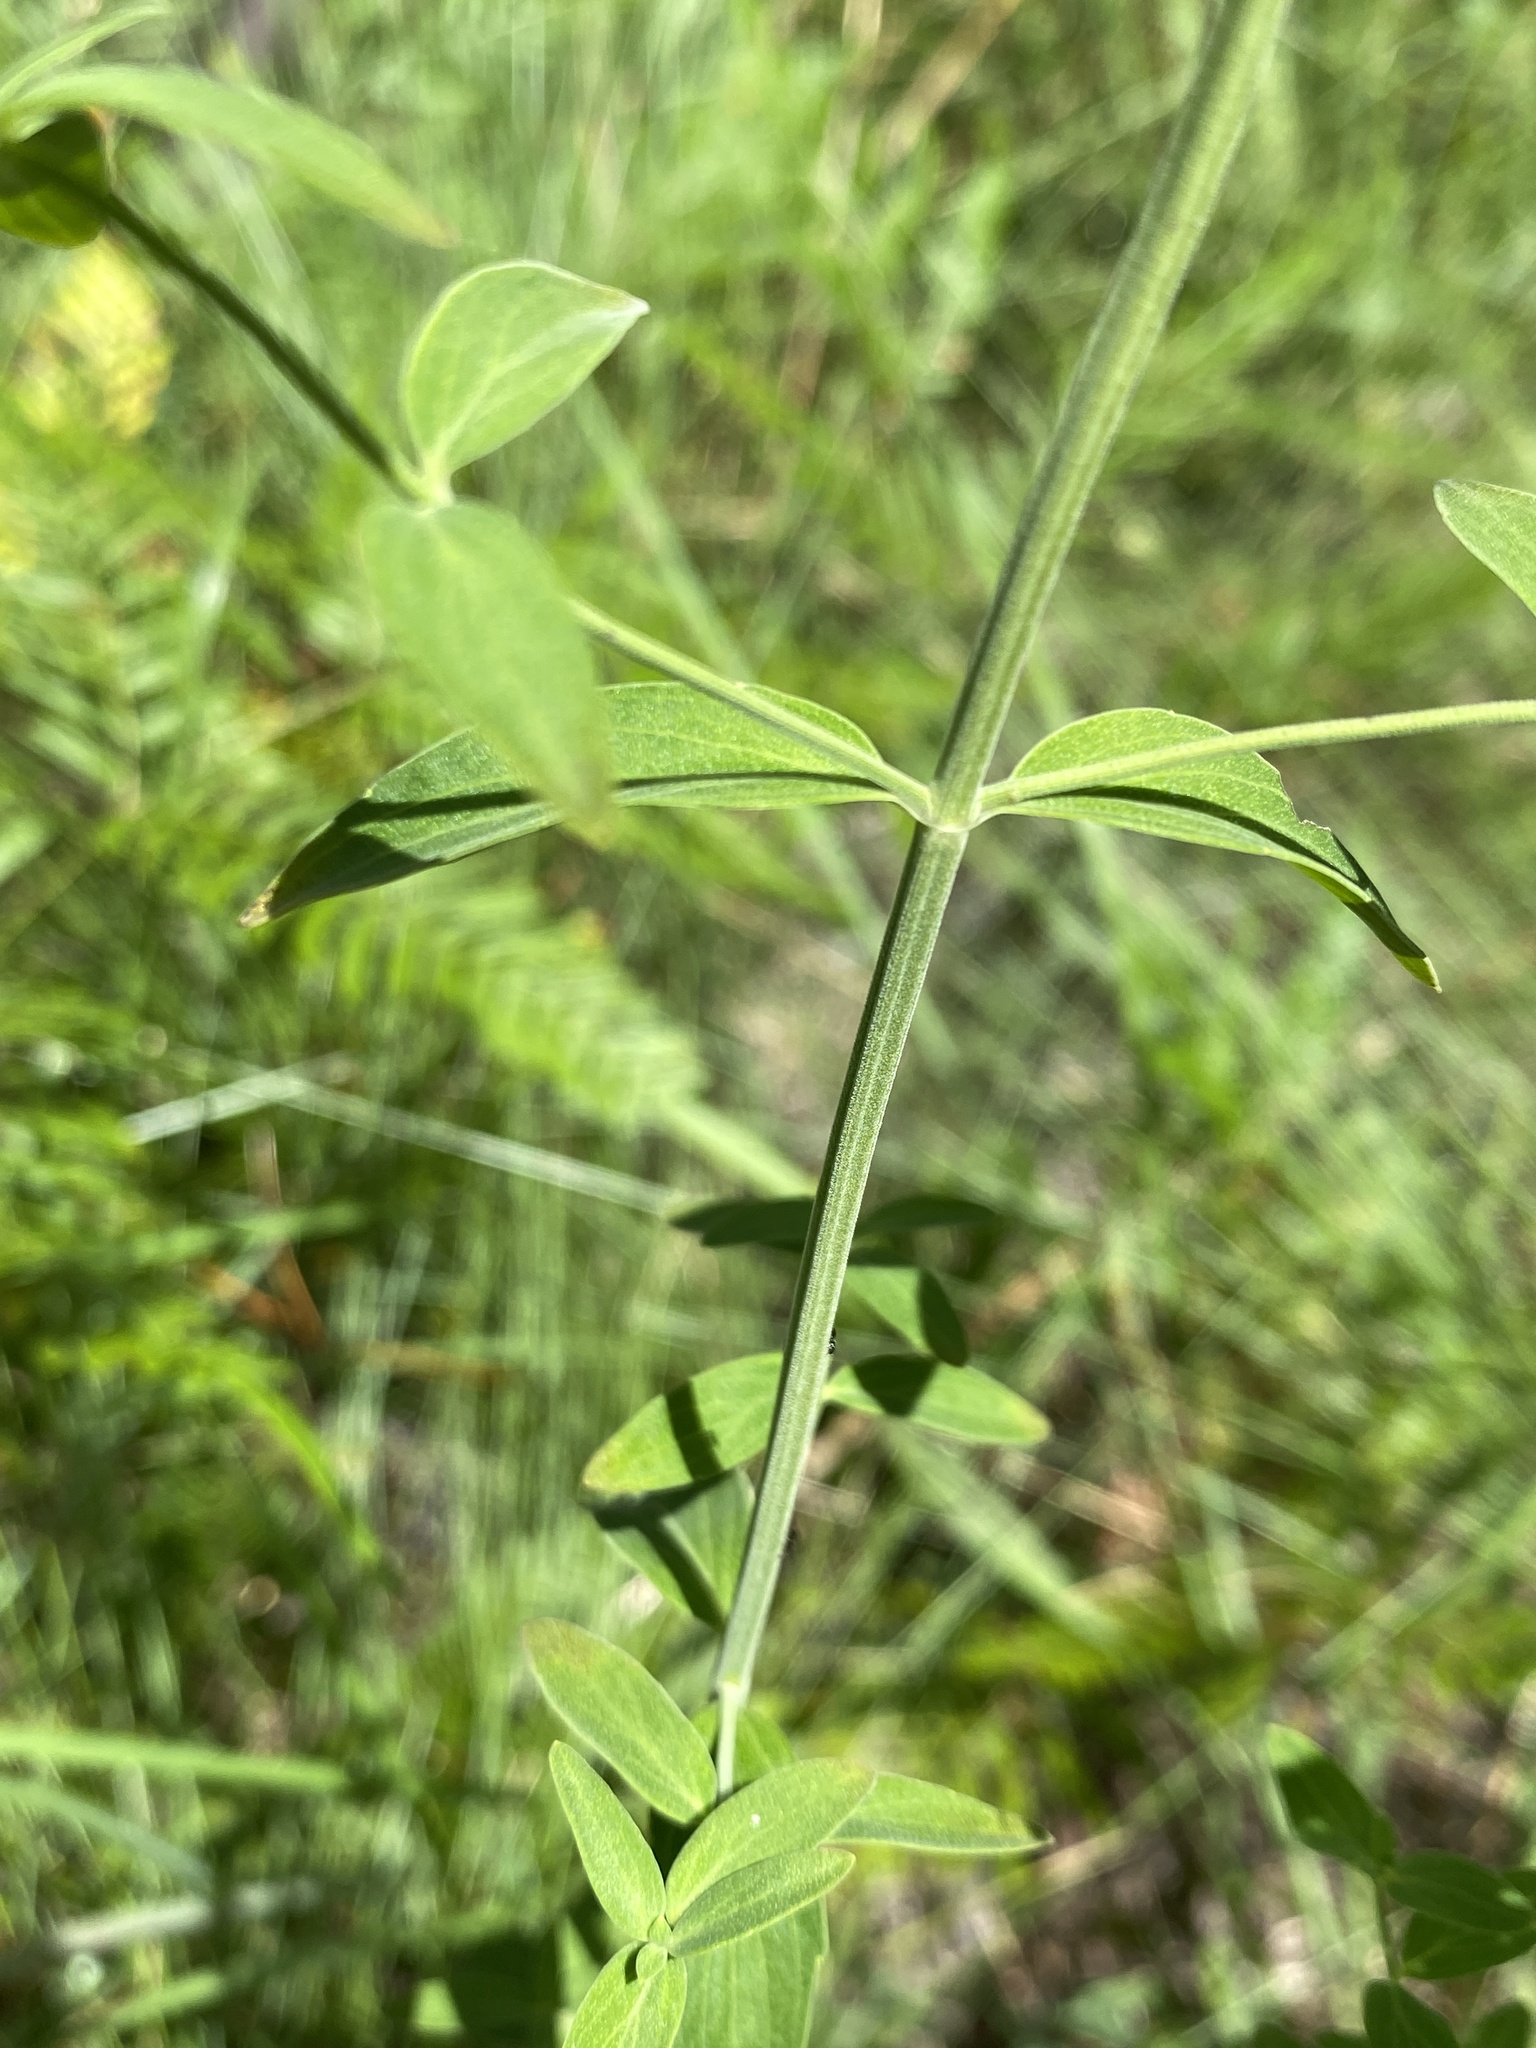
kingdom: Plantae
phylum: Tracheophyta
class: Magnoliopsida
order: Lamiales
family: Lamiaceae
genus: Pycnanthemum
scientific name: Pycnanthemum flexuosum
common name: Appalachian mountain-mint
